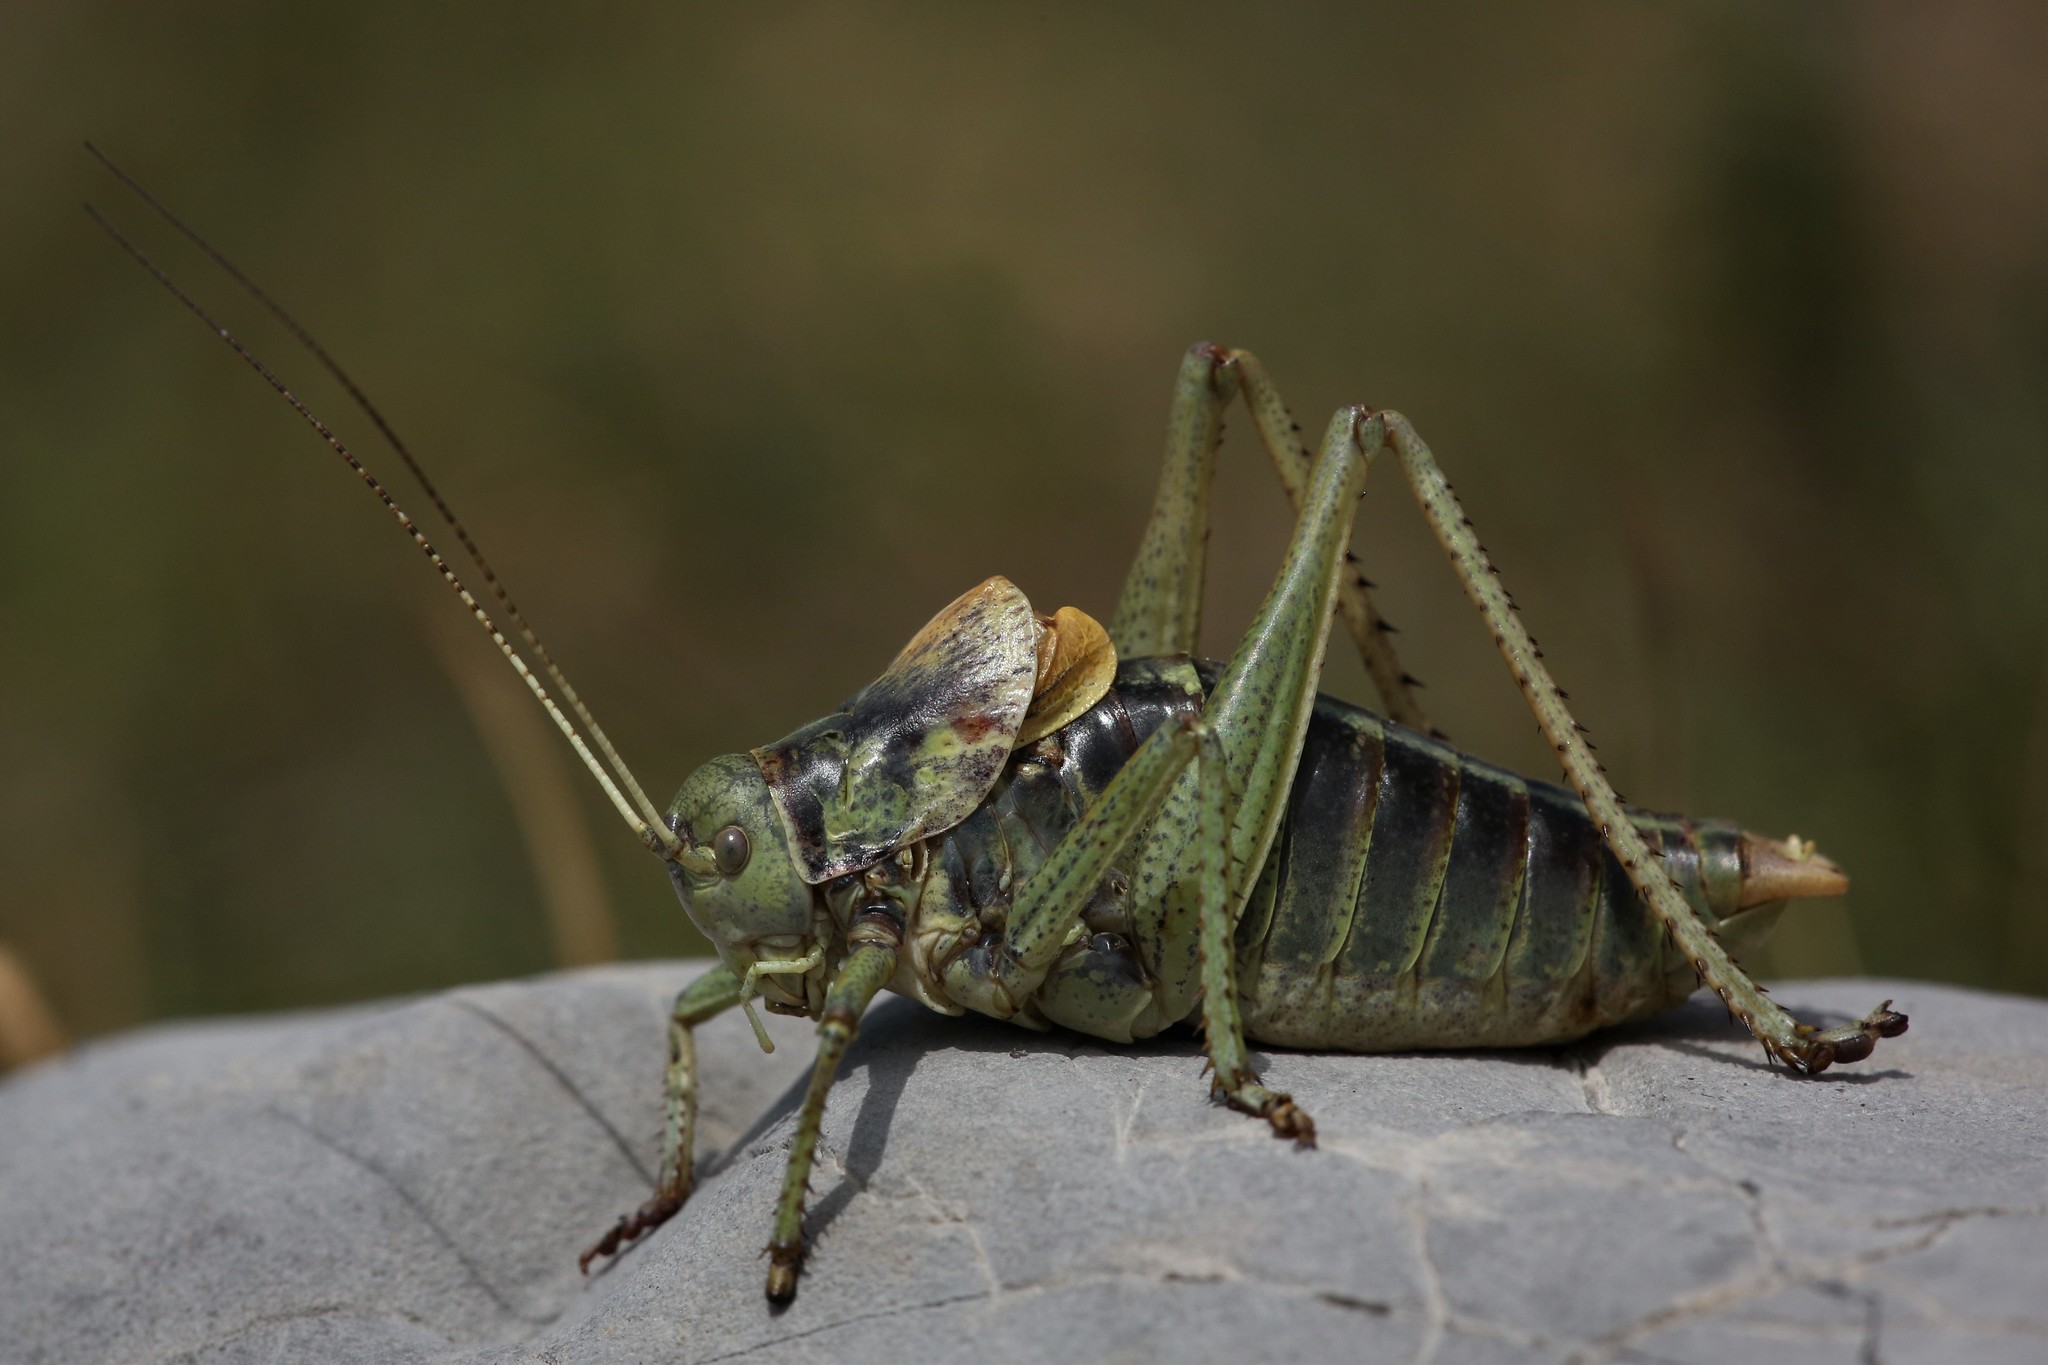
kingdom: Animalia
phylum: Arthropoda
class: Insecta
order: Orthoptera
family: Tettigoniidae
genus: Polysarcus
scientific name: Polysarcus scutatus
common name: Short-tailed bull bush-cricket
